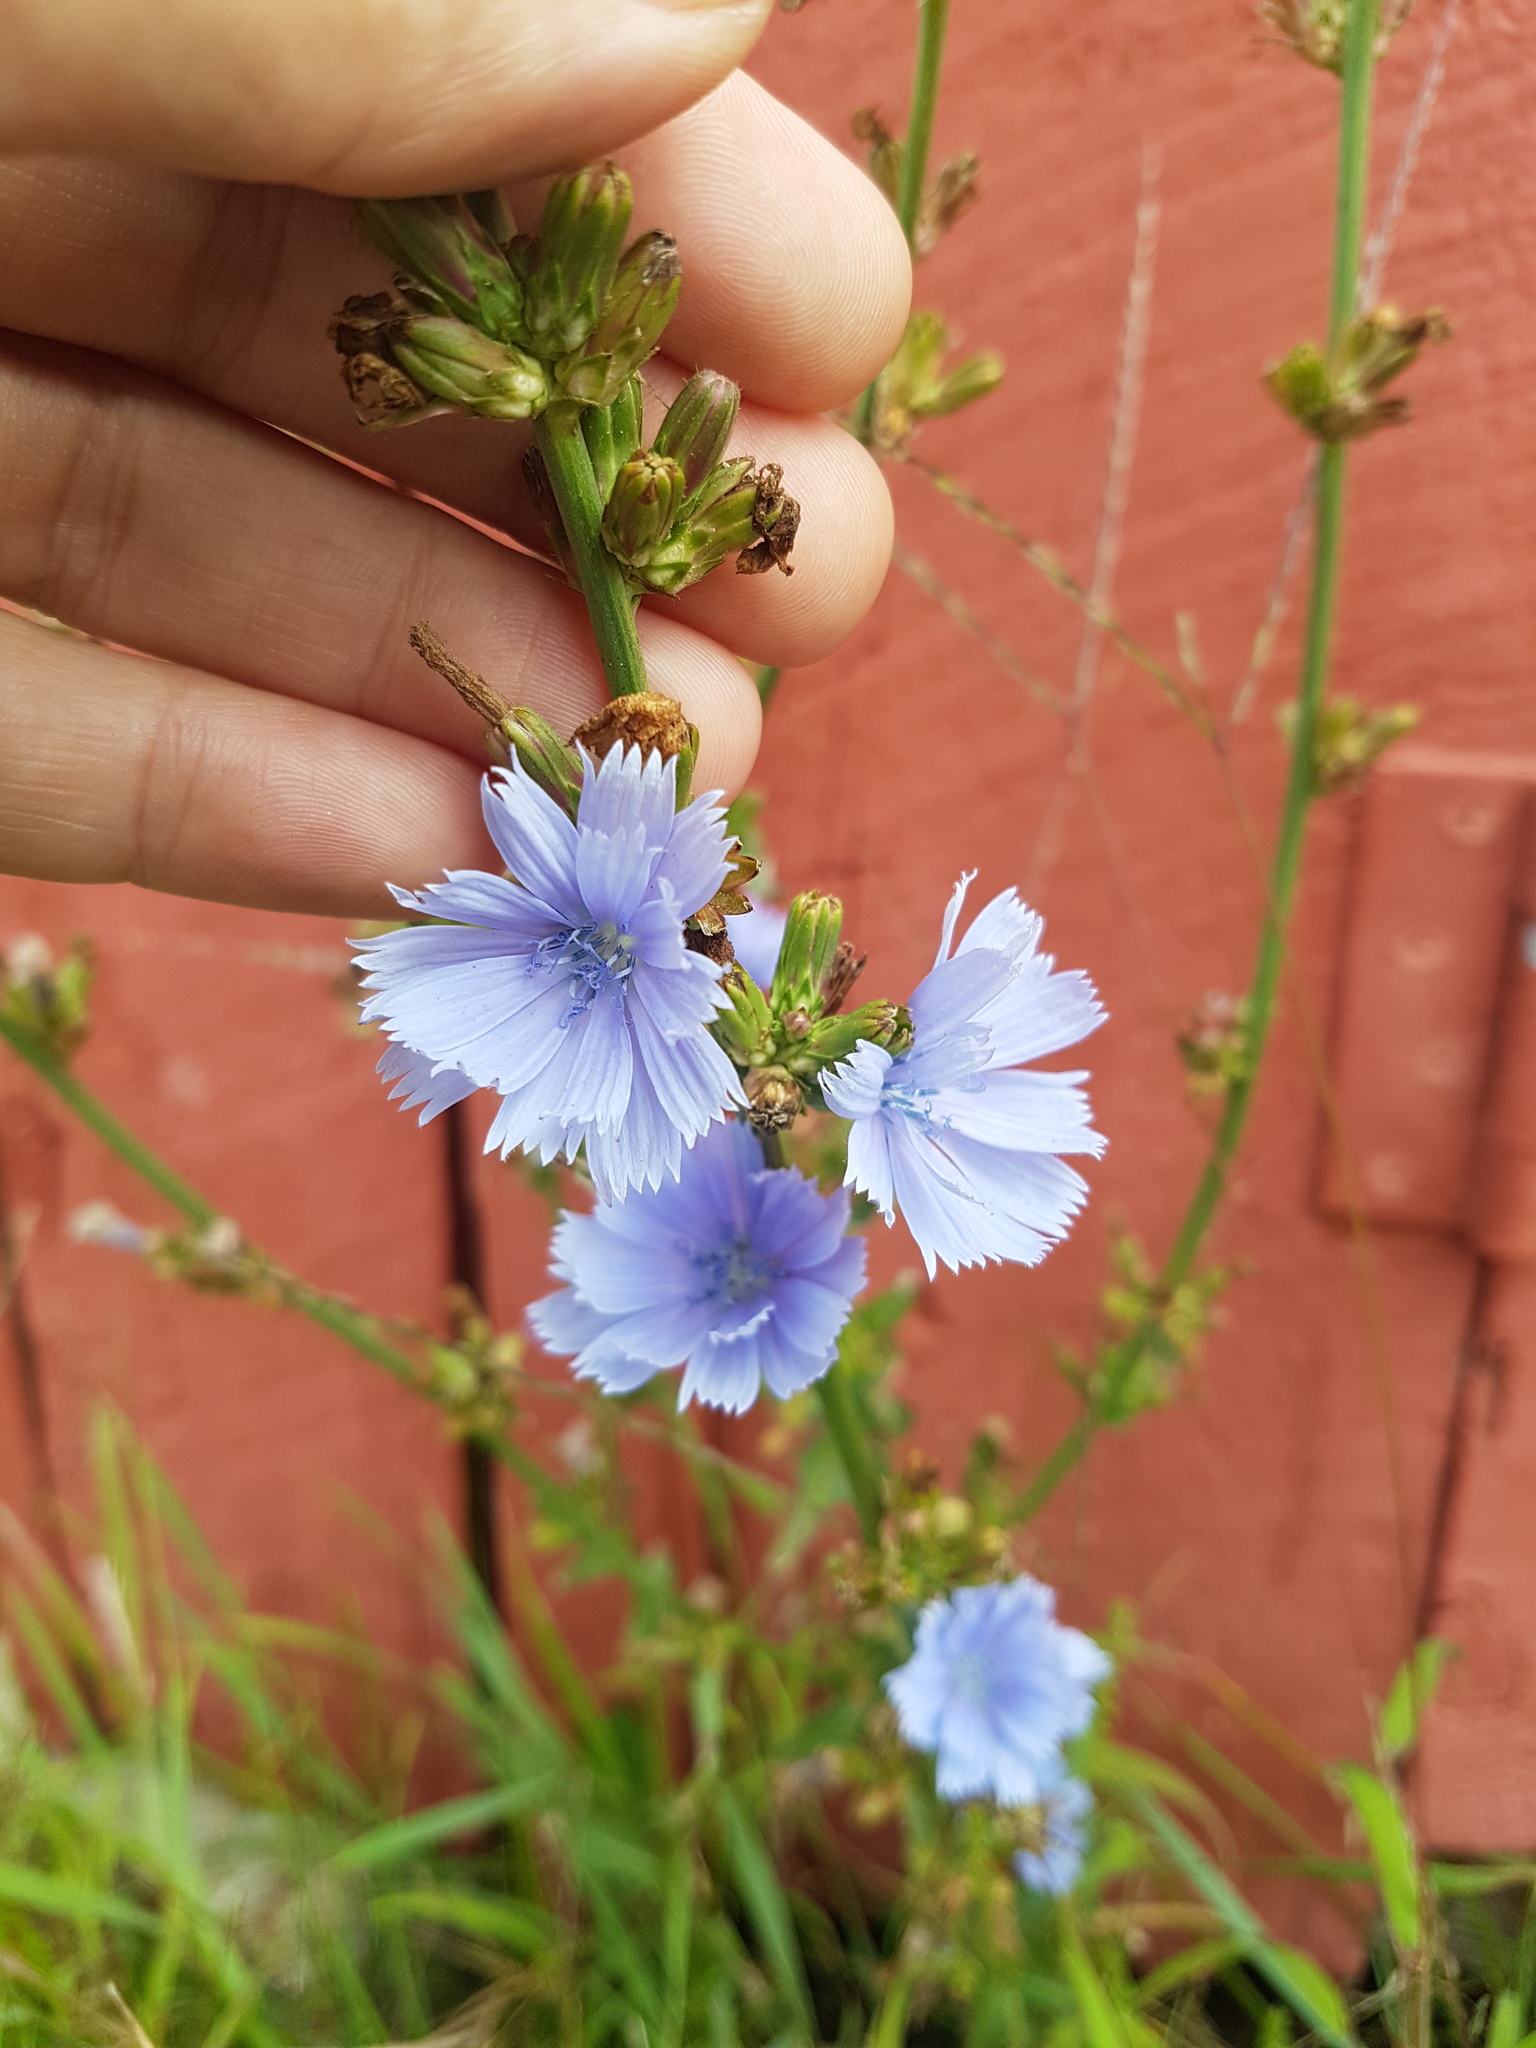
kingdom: Plantae
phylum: Tracheophyta
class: Magnoliopsida
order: Asterales
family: Asteraceae
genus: Cichorium
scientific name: Cichorium intybus
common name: Chicory
